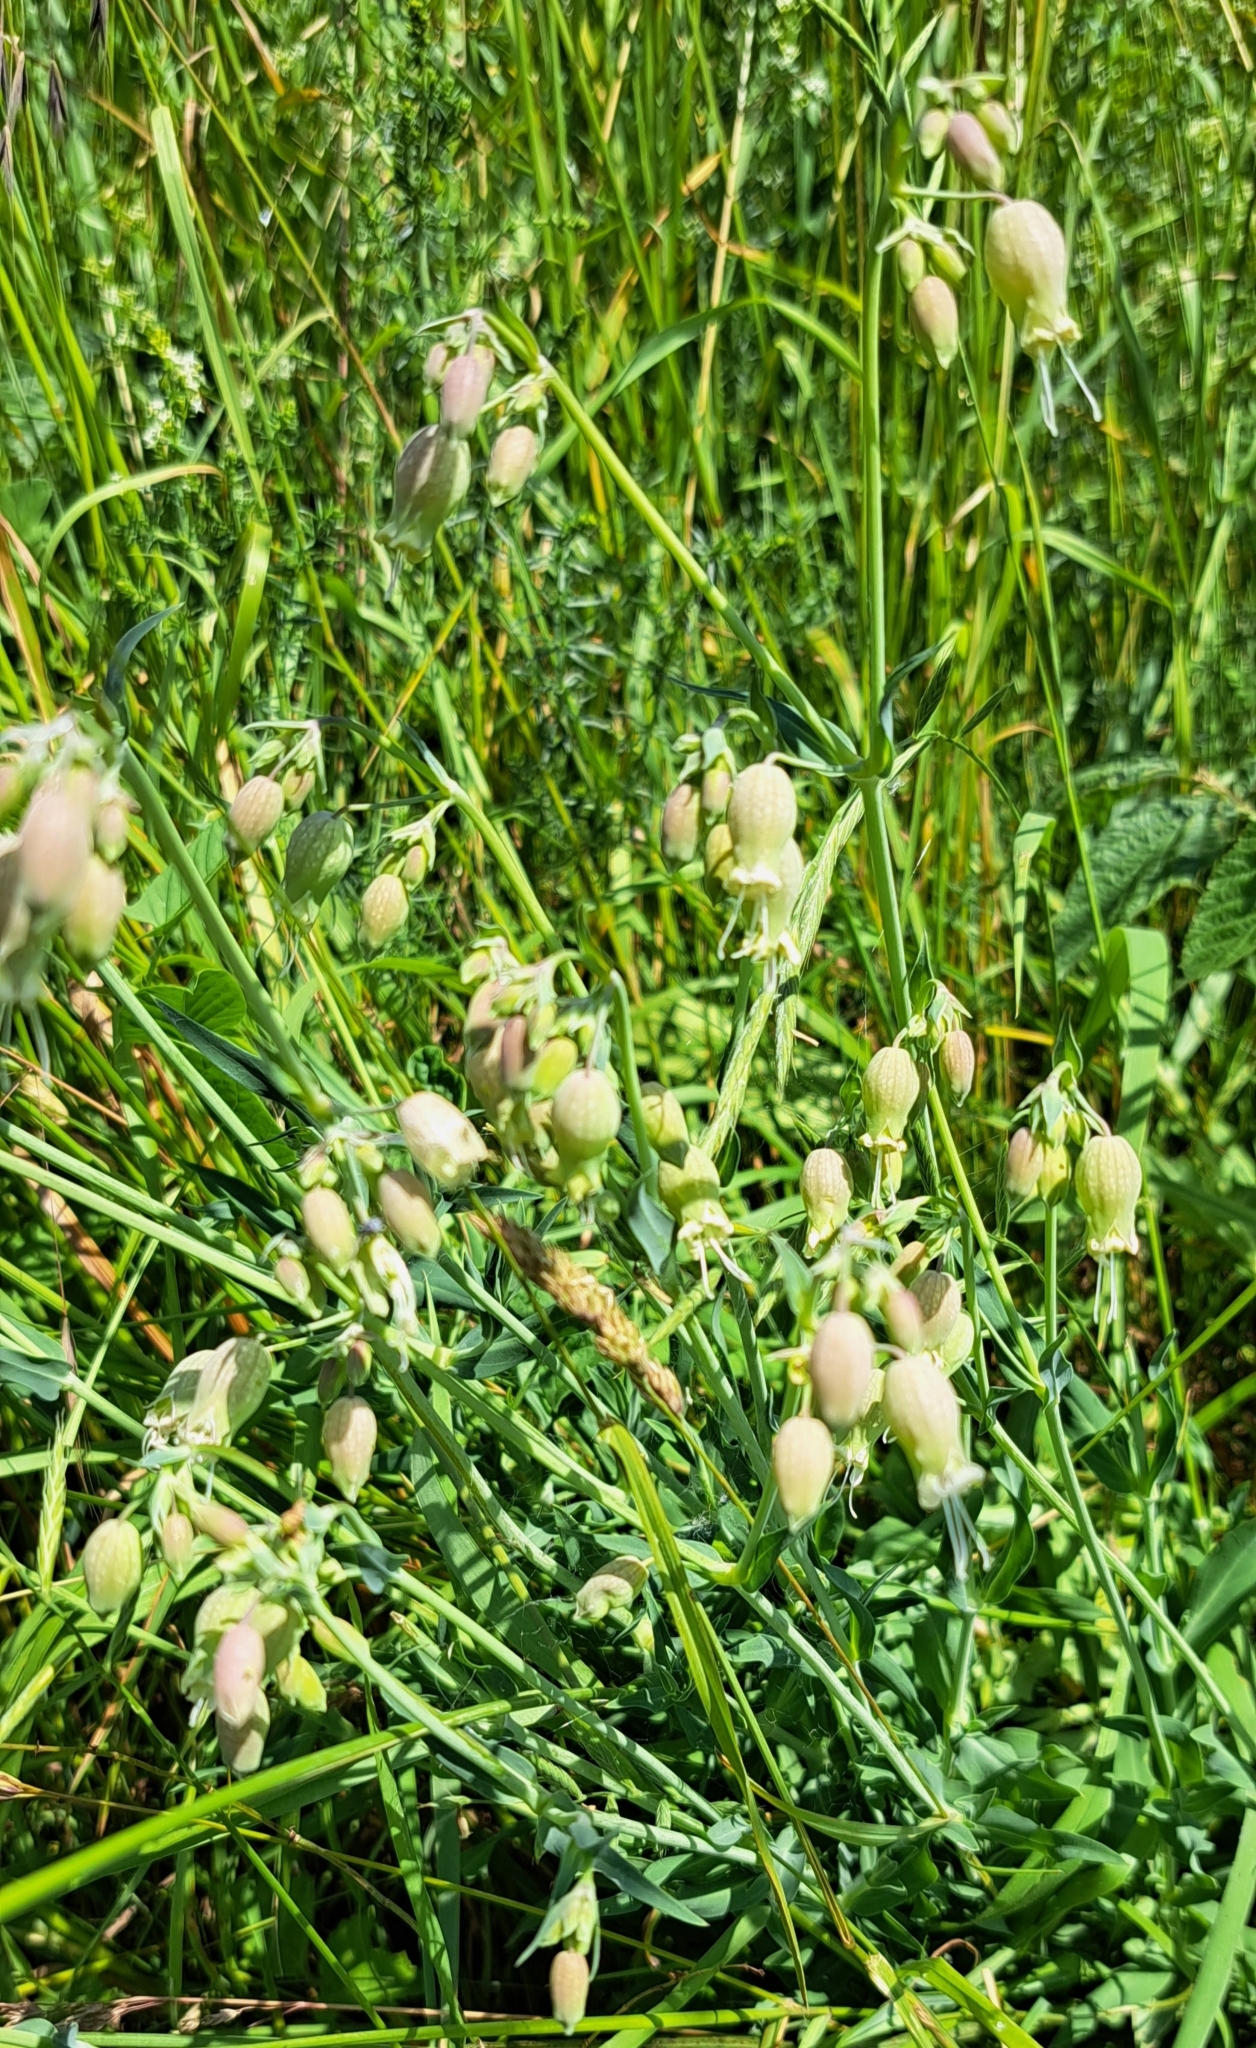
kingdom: Plantae
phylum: Tracheophyta
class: Magnoliopsida
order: Caryophyllales
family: Caryophyllaceae
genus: Silene
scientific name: Silene vulgaris
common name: Bladder campion
